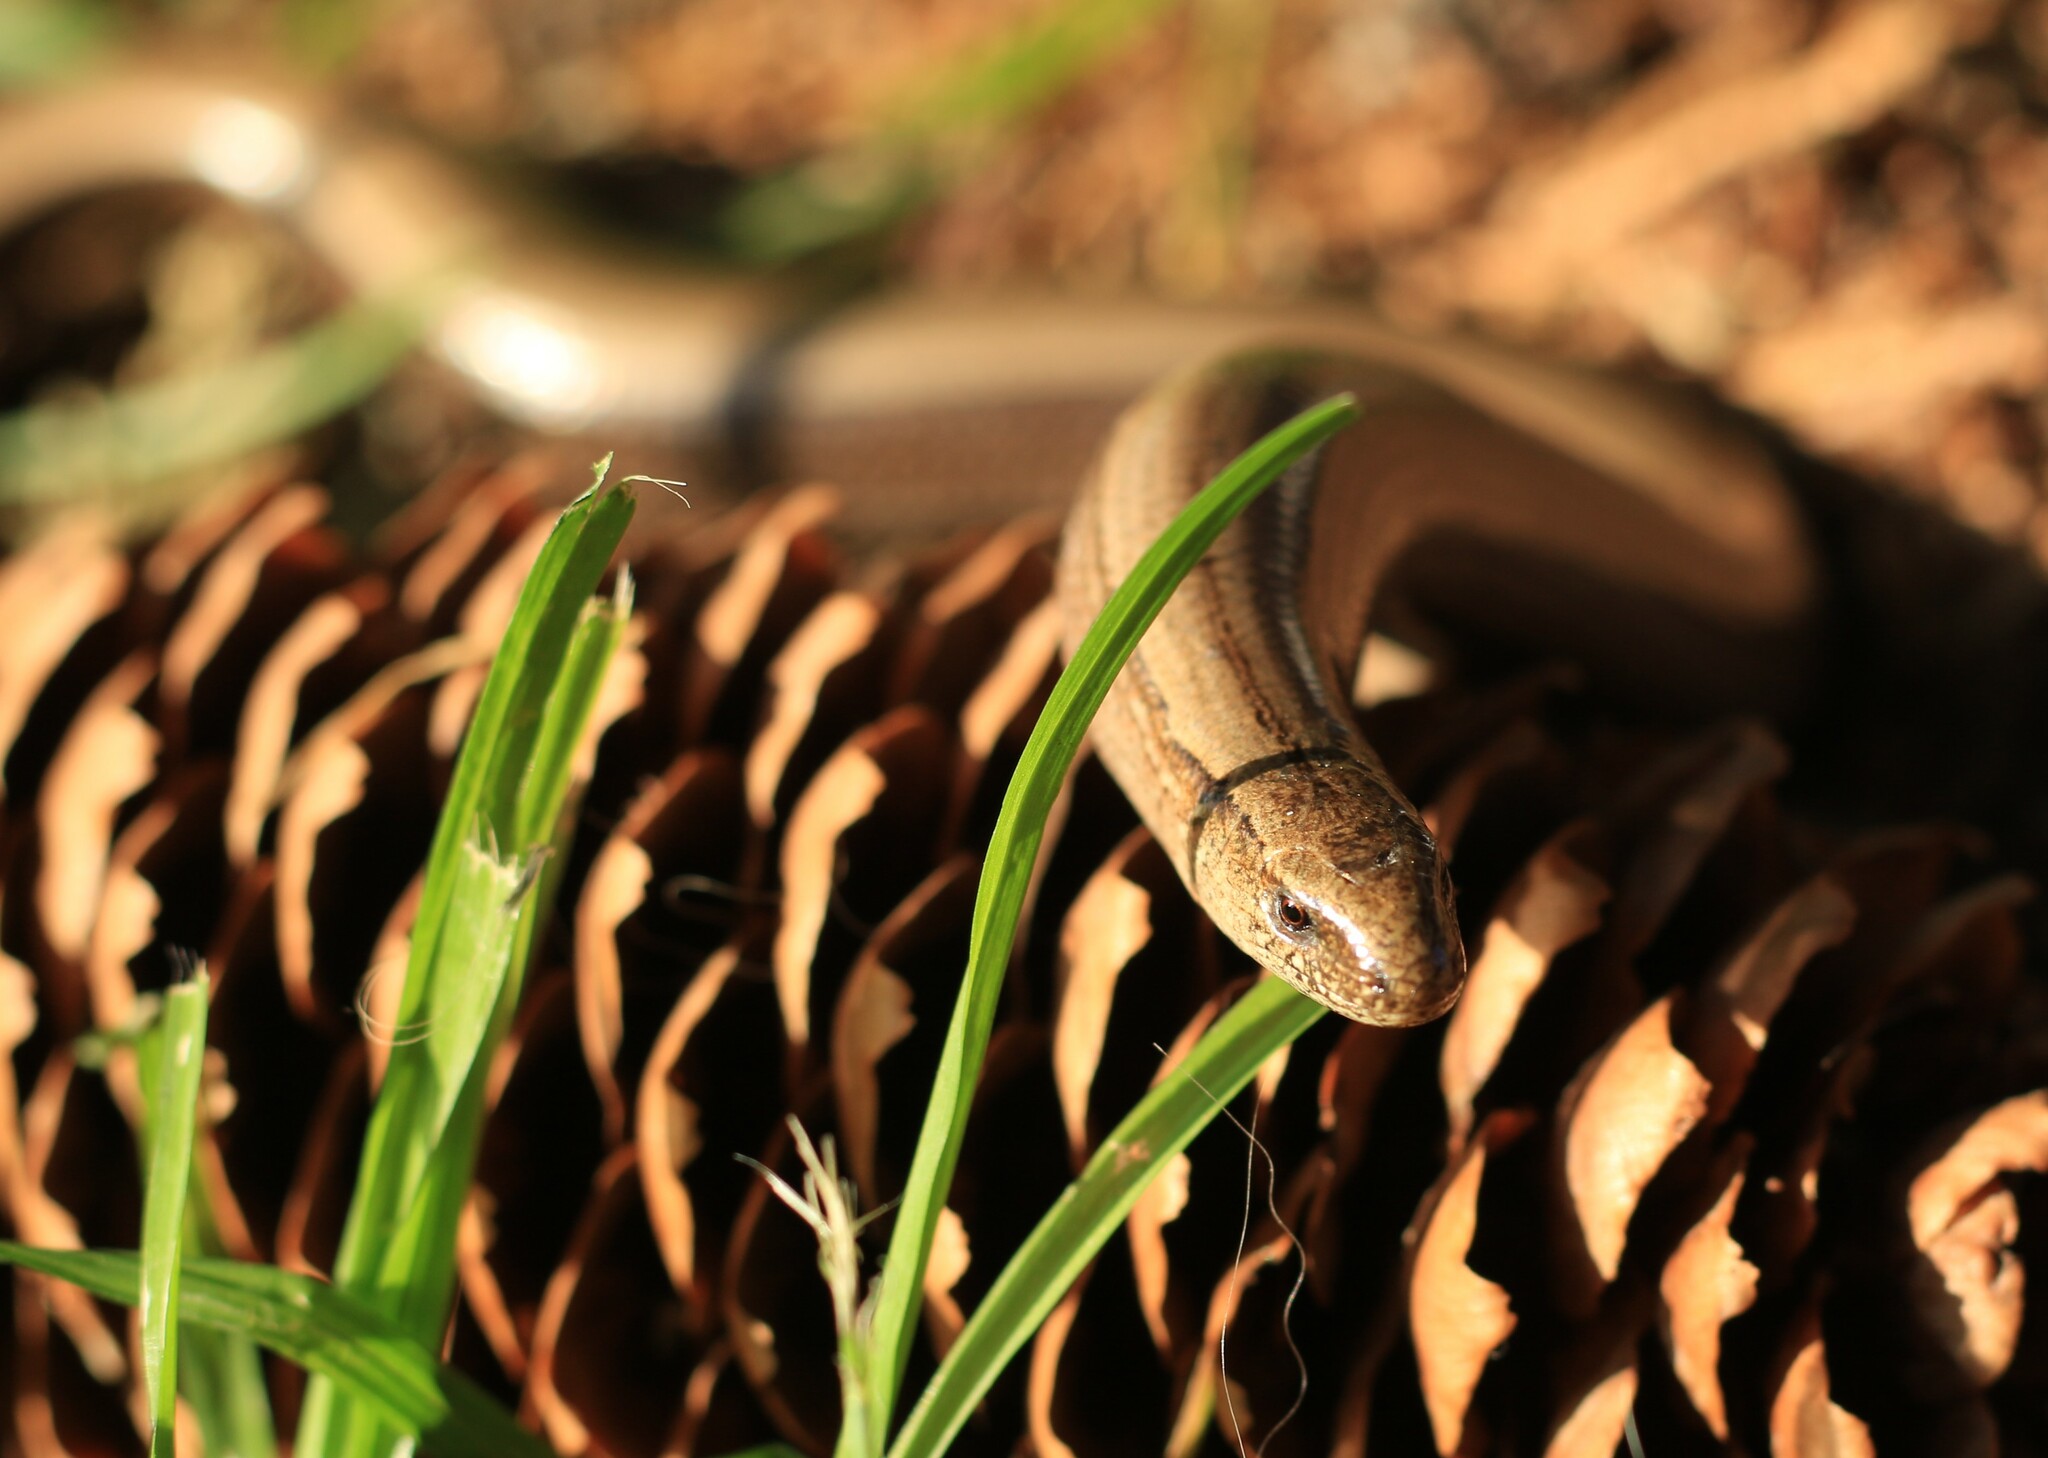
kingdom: Animalia
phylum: Chordata
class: Squamata
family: Anguidae
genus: Anguis
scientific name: Anguis fragilis
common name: Slow worm
